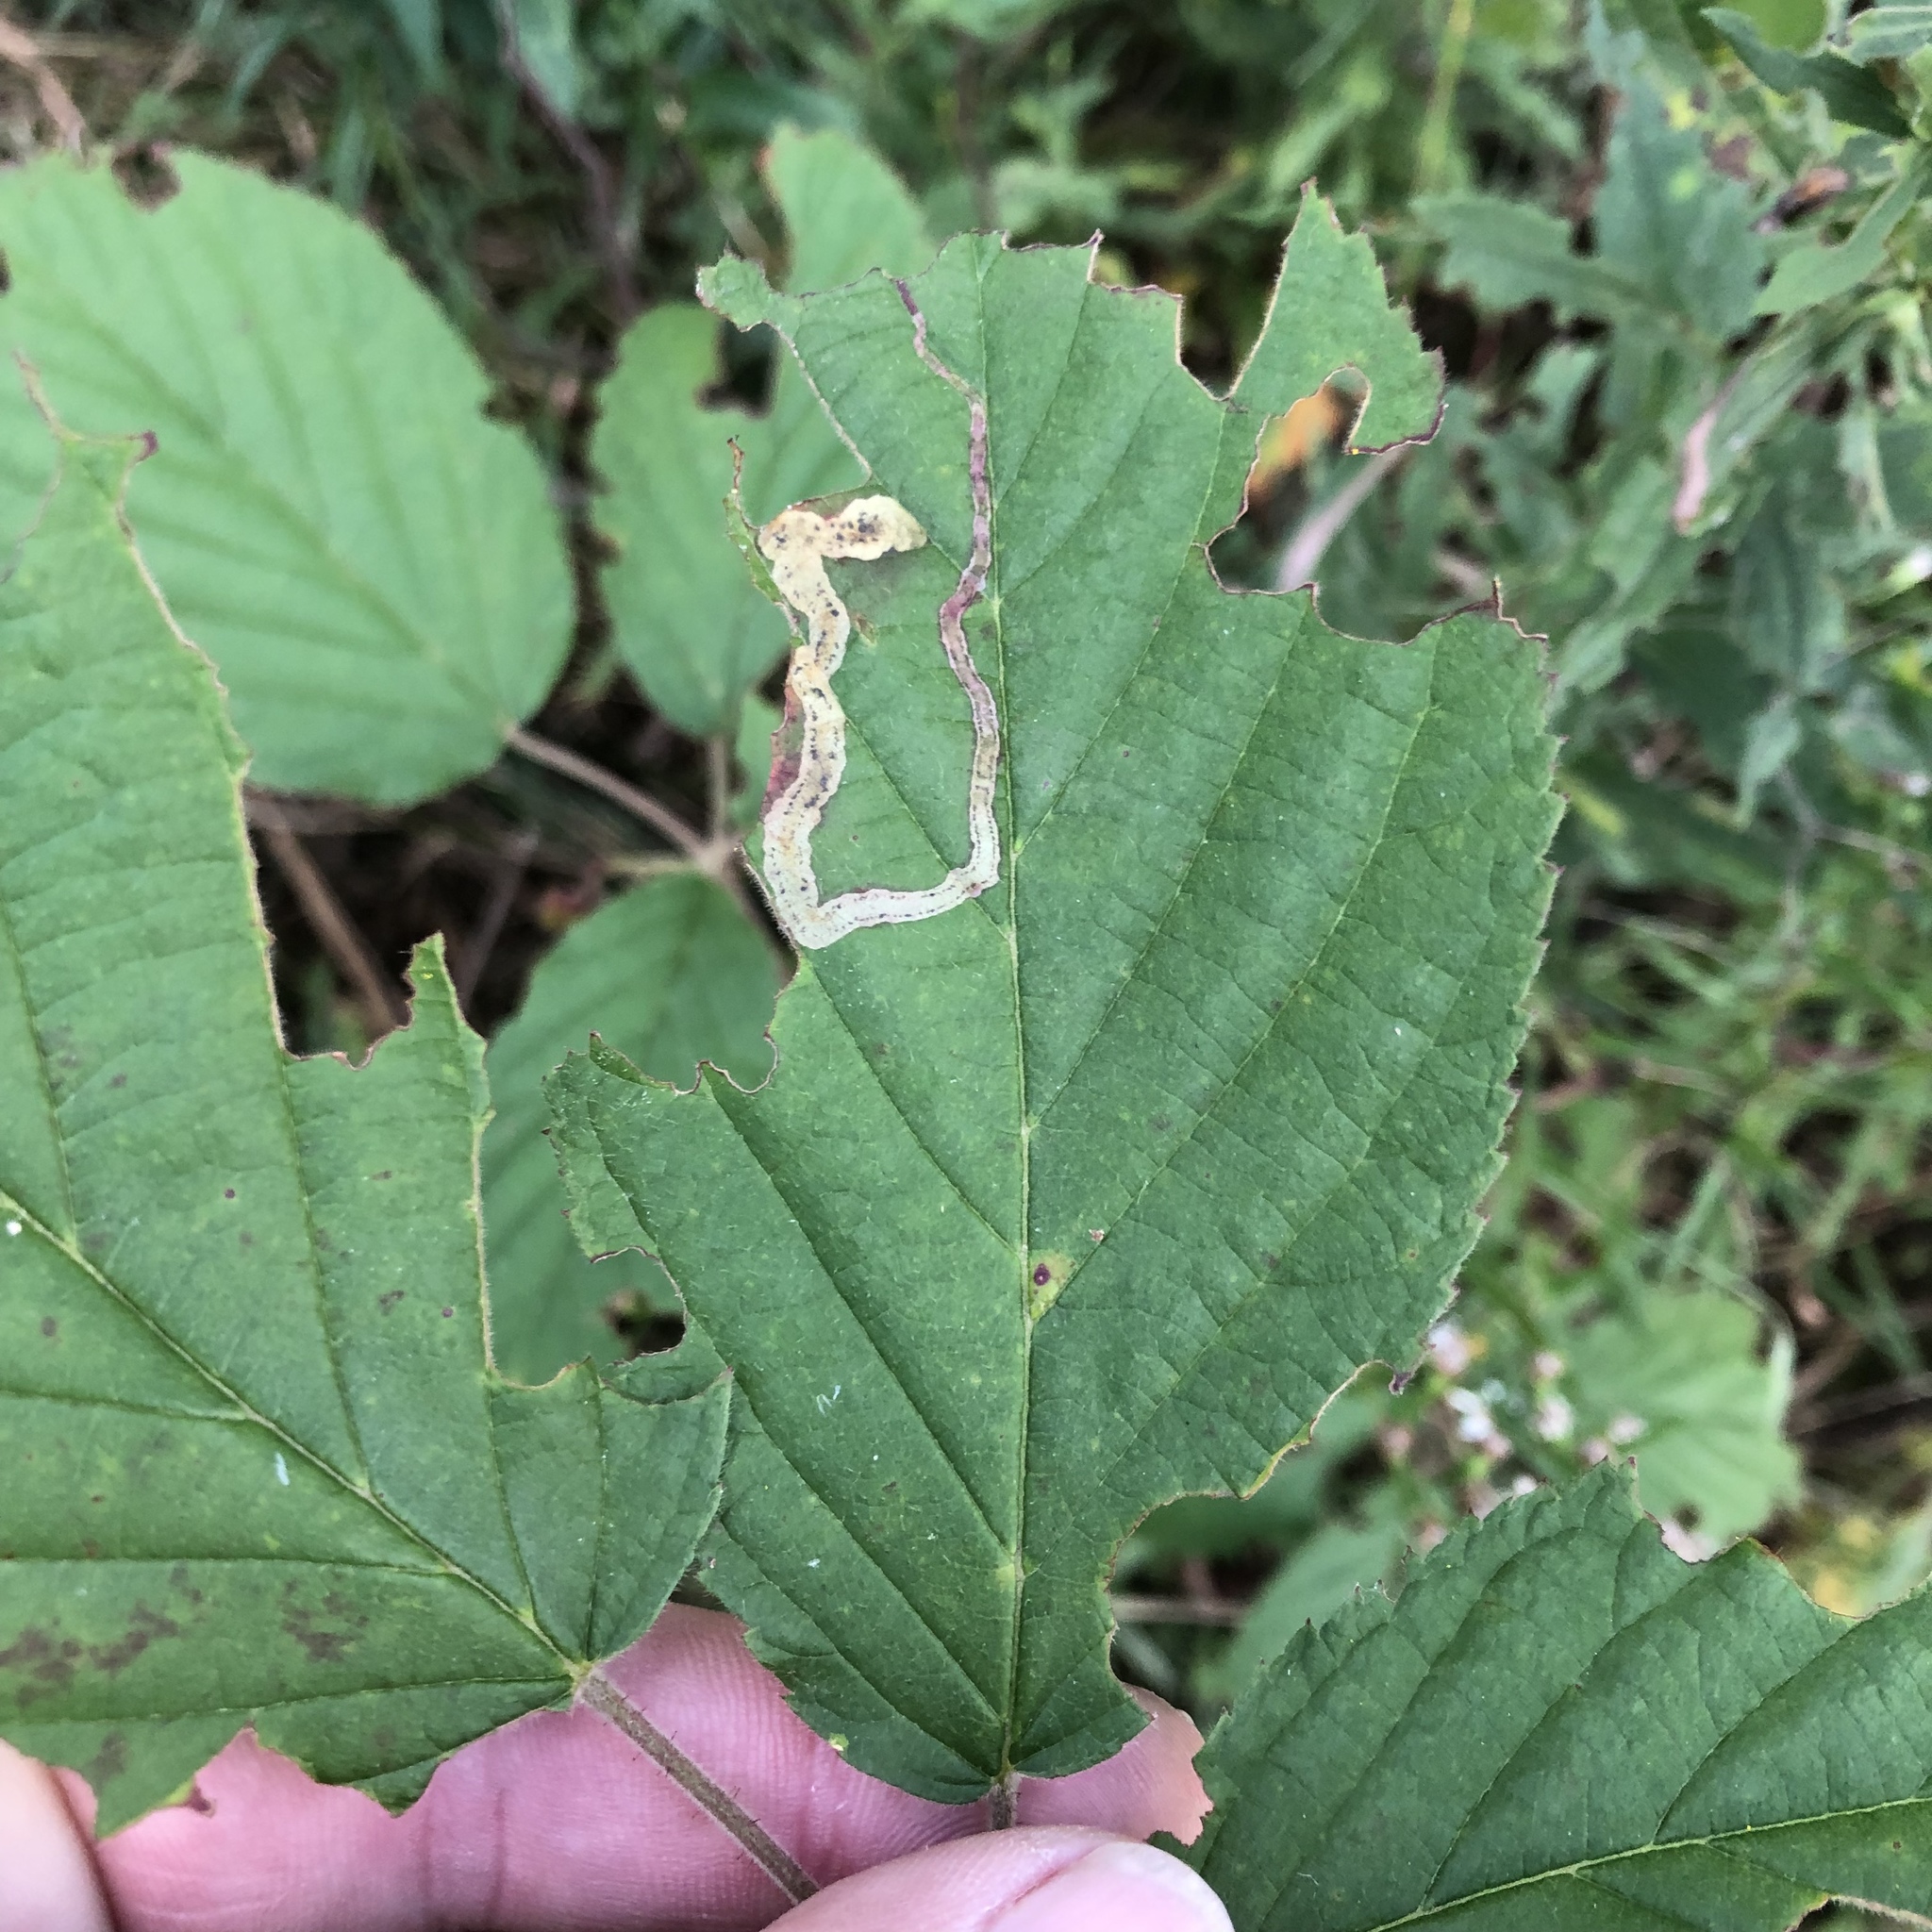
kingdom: Animalia
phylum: Arthropoda
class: Insecta
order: Diptera
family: Agromyzidae
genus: Agromyza
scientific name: Agromyza vockerothi
